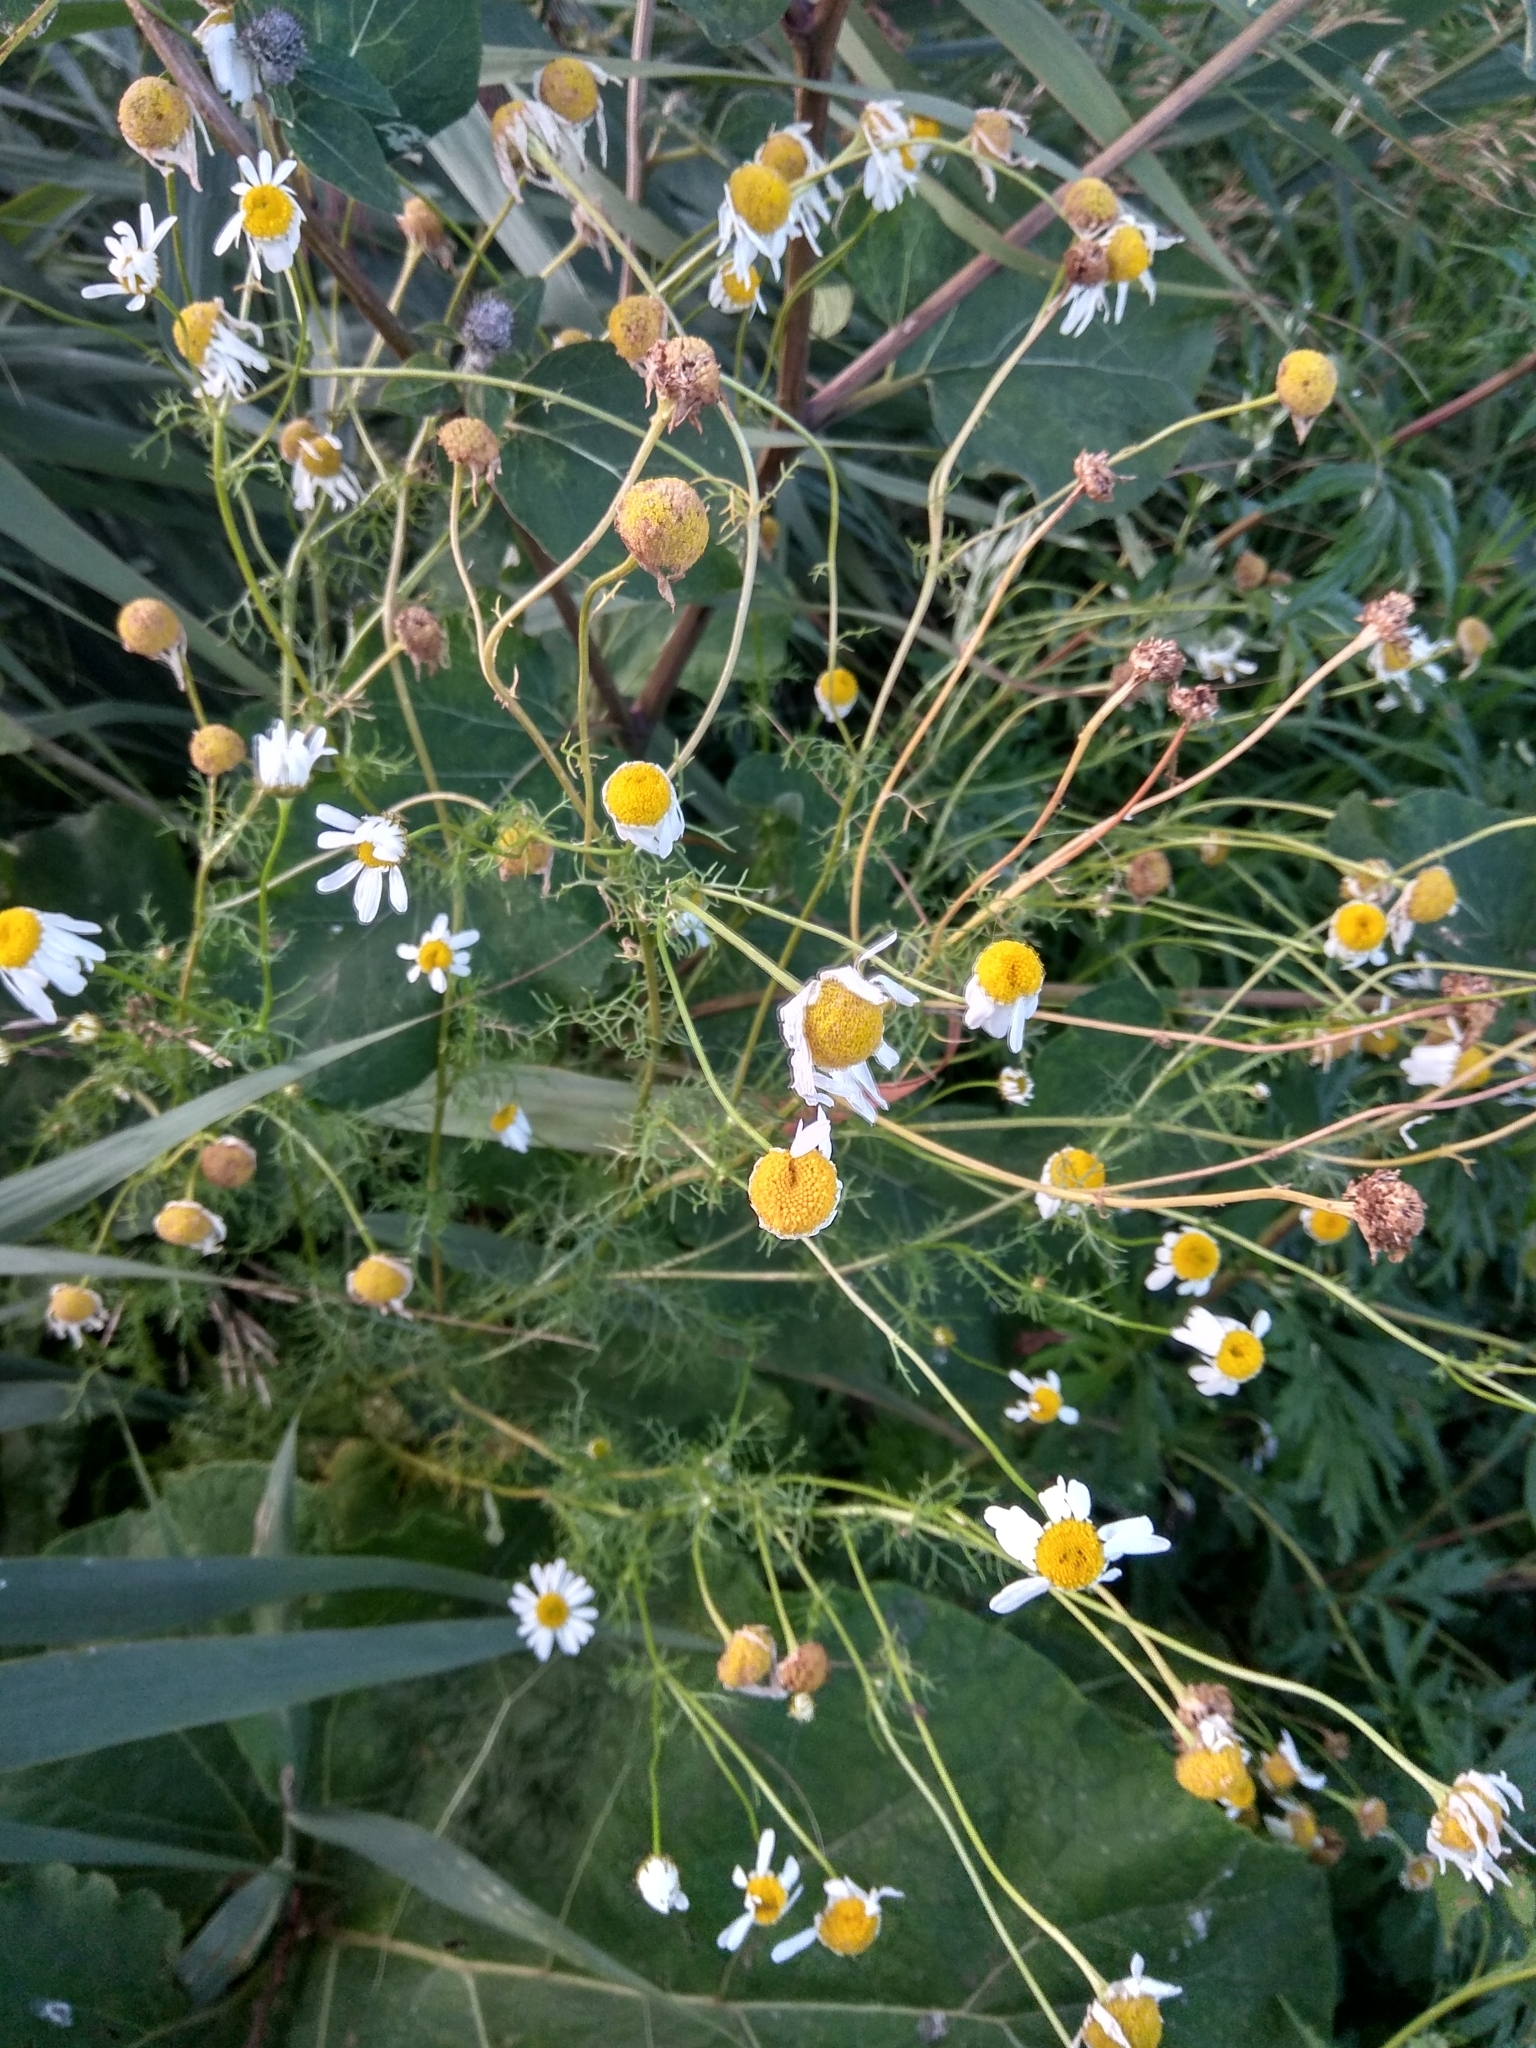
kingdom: Plantae
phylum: Tracheophyta
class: Magnoliopsida
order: Asterales
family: Asteraceae
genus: Tripleurospermum
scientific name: Tripleurospermum inodorum
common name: Scentless mayweed
